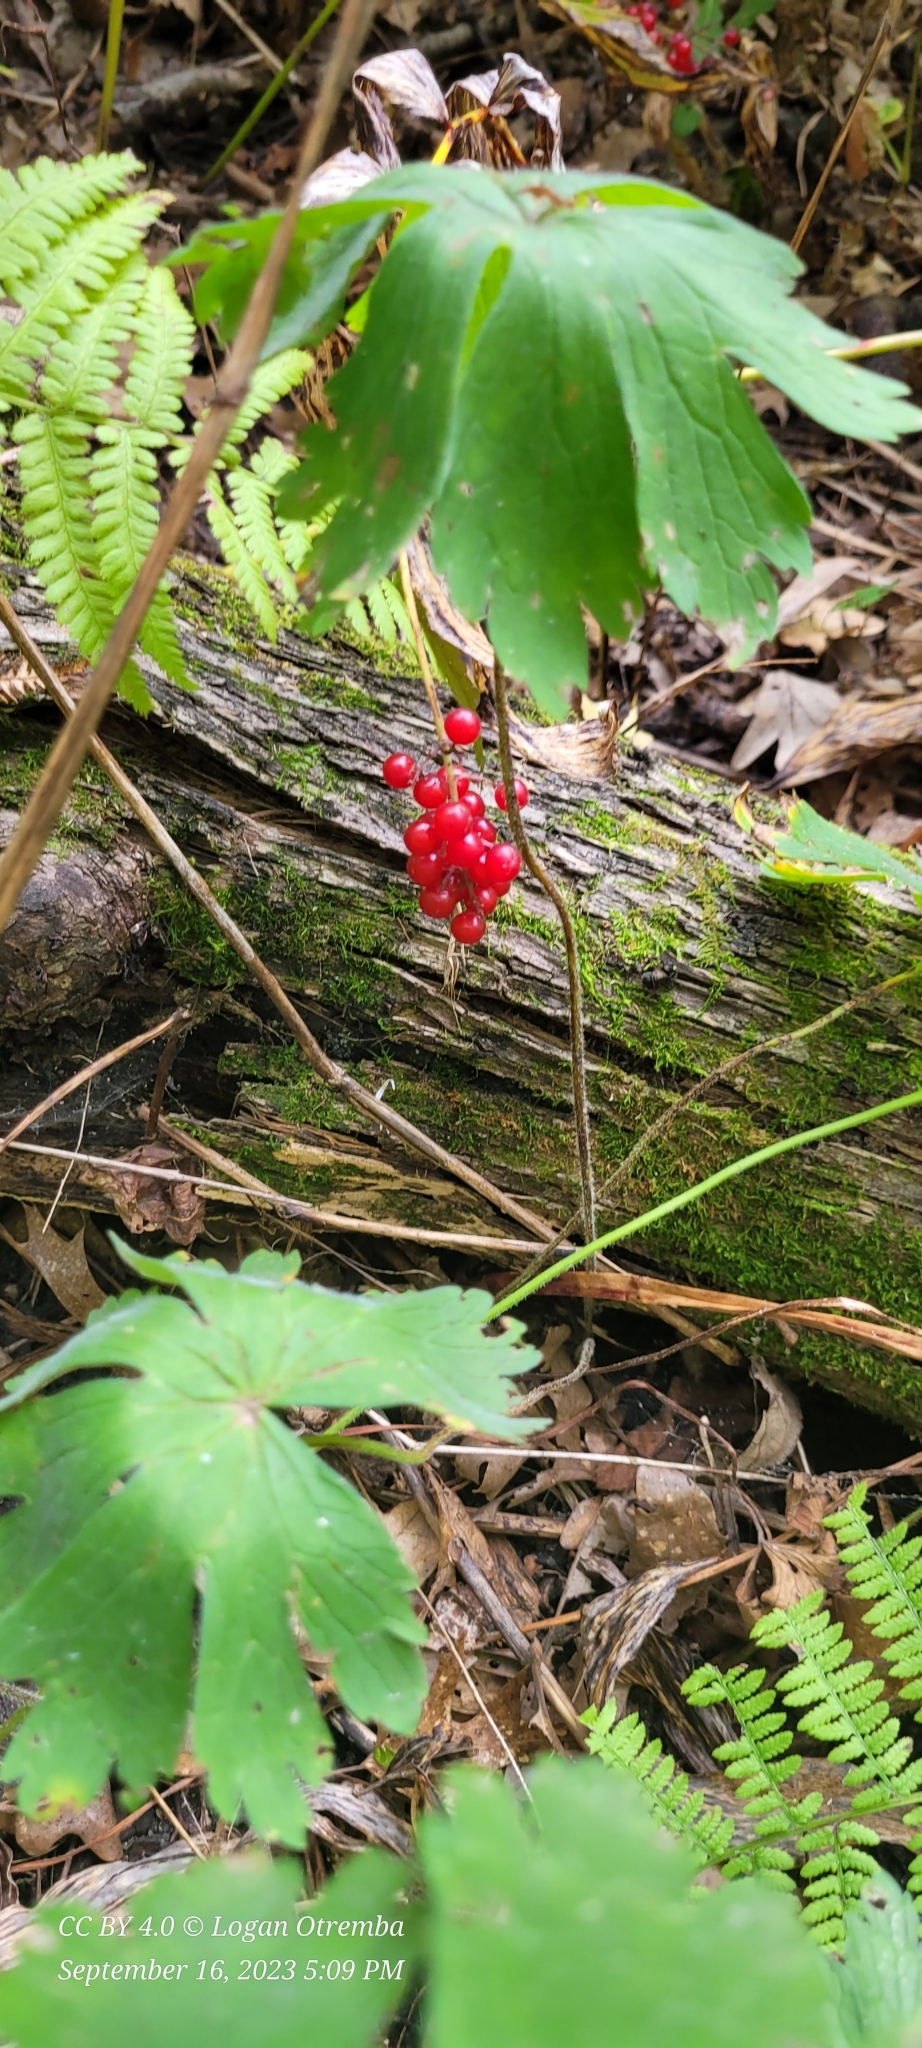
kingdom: Plantae
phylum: Tracheophyta
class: Liliopsida
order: Asparagales
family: Asparagaceae
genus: Maianthemum
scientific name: Maianthemum racemosum
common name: False spikenard
